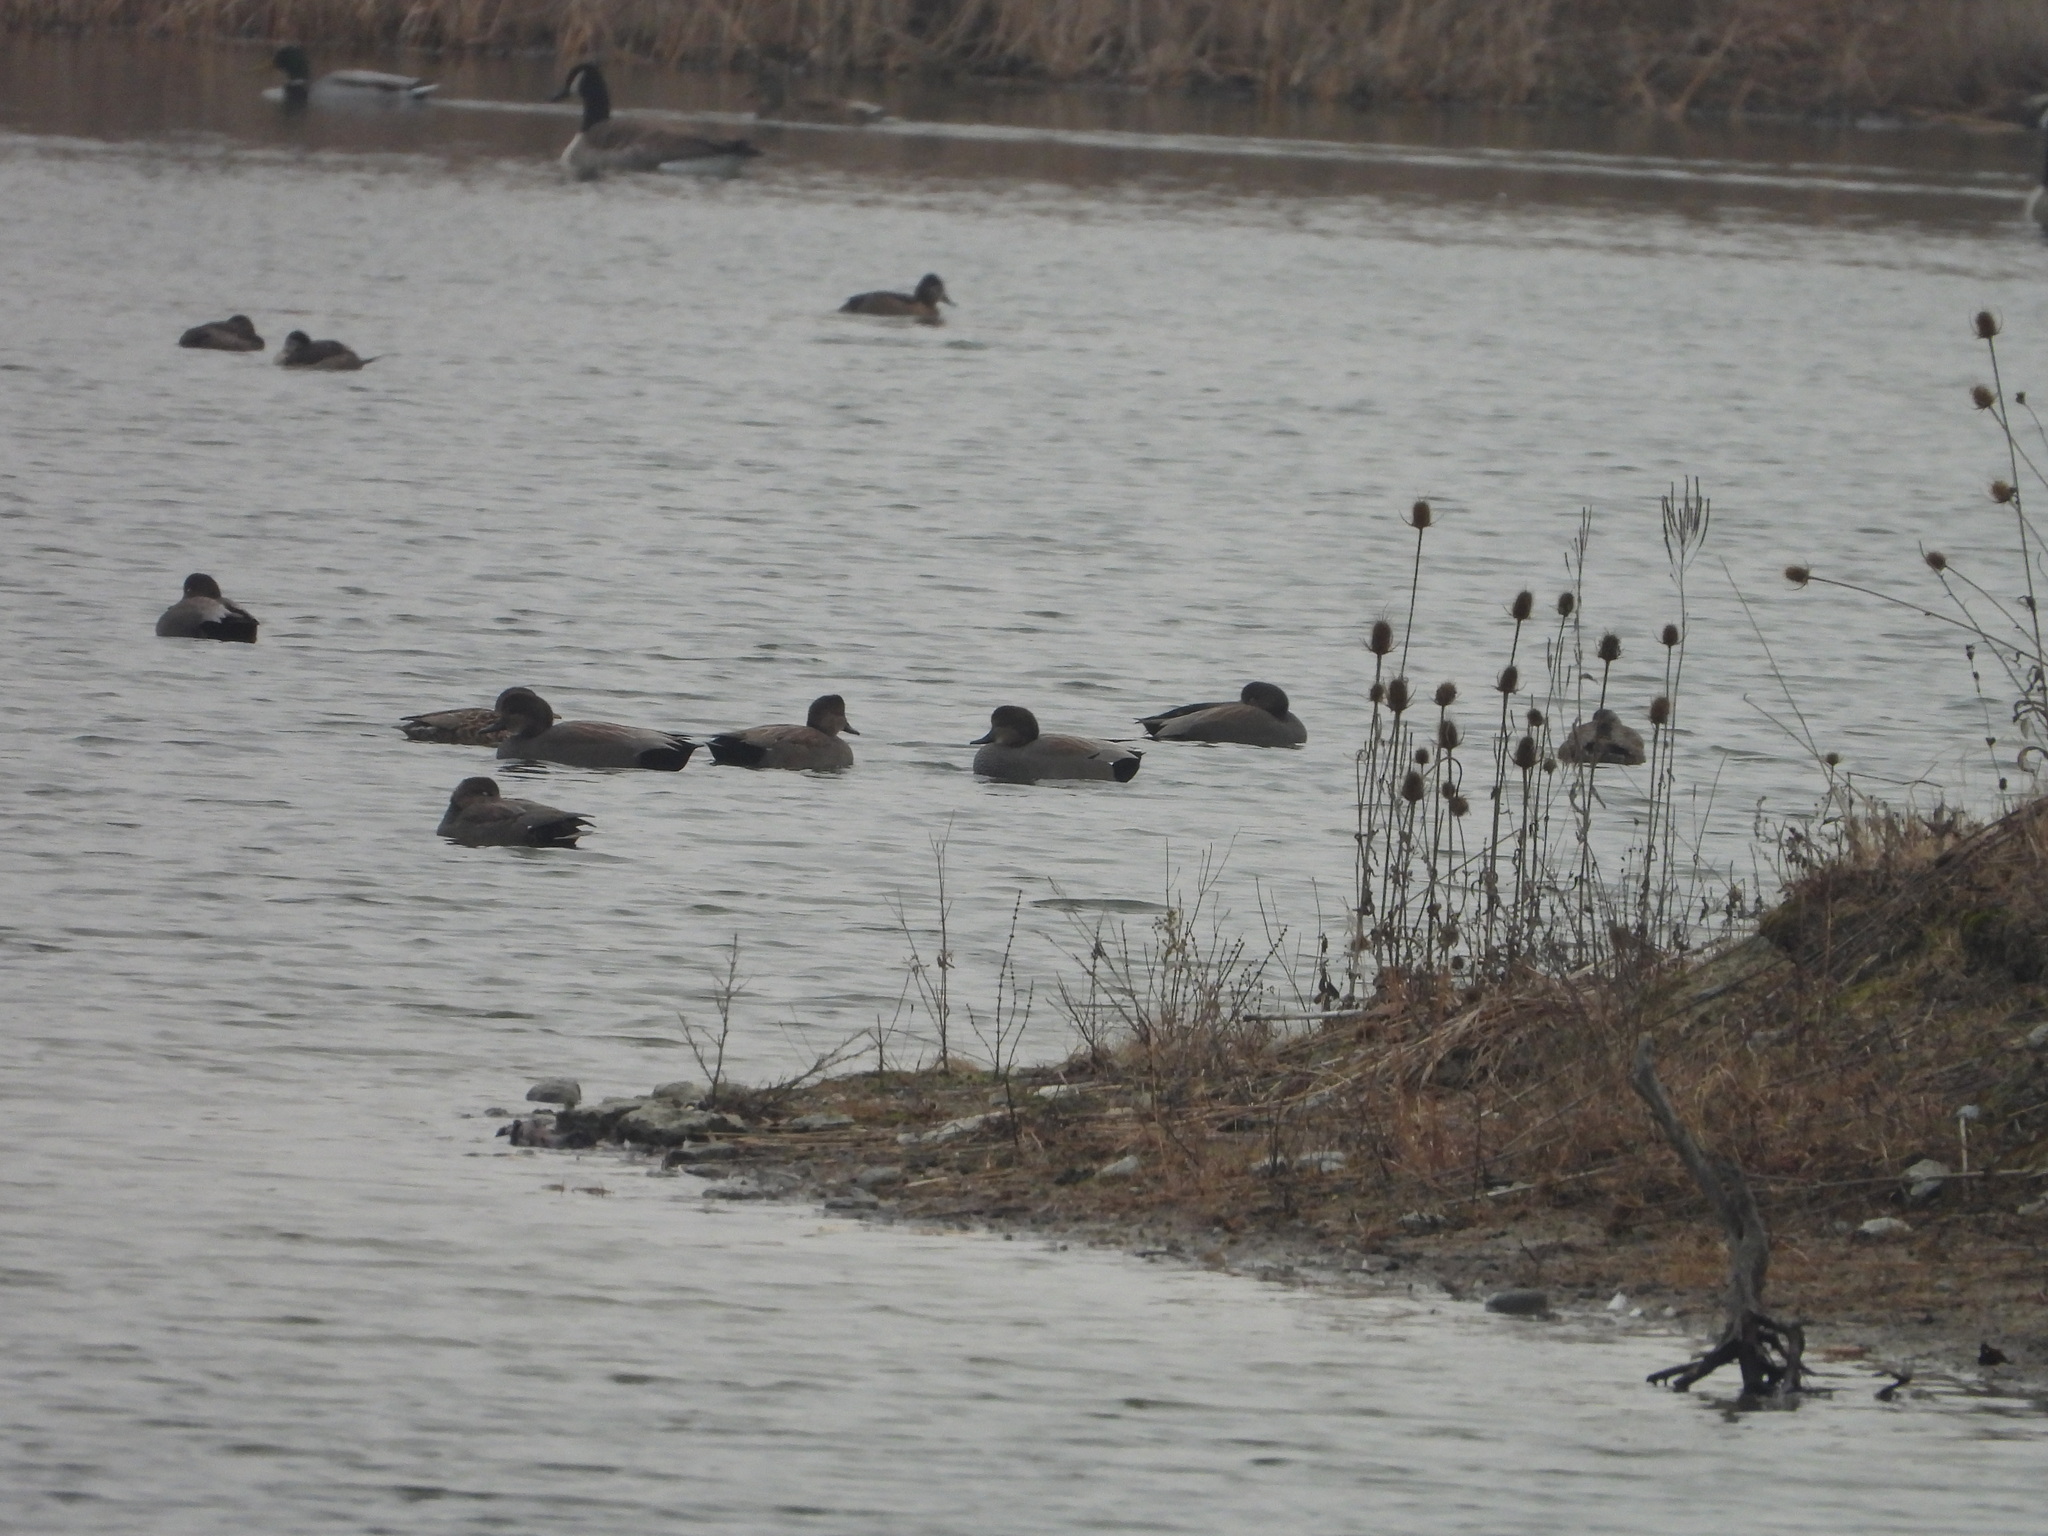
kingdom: Animalia
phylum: Chordata
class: Aves
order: Anseriformes
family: Anatidae
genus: Mareca
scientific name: Mareca strepera
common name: Gadwall
